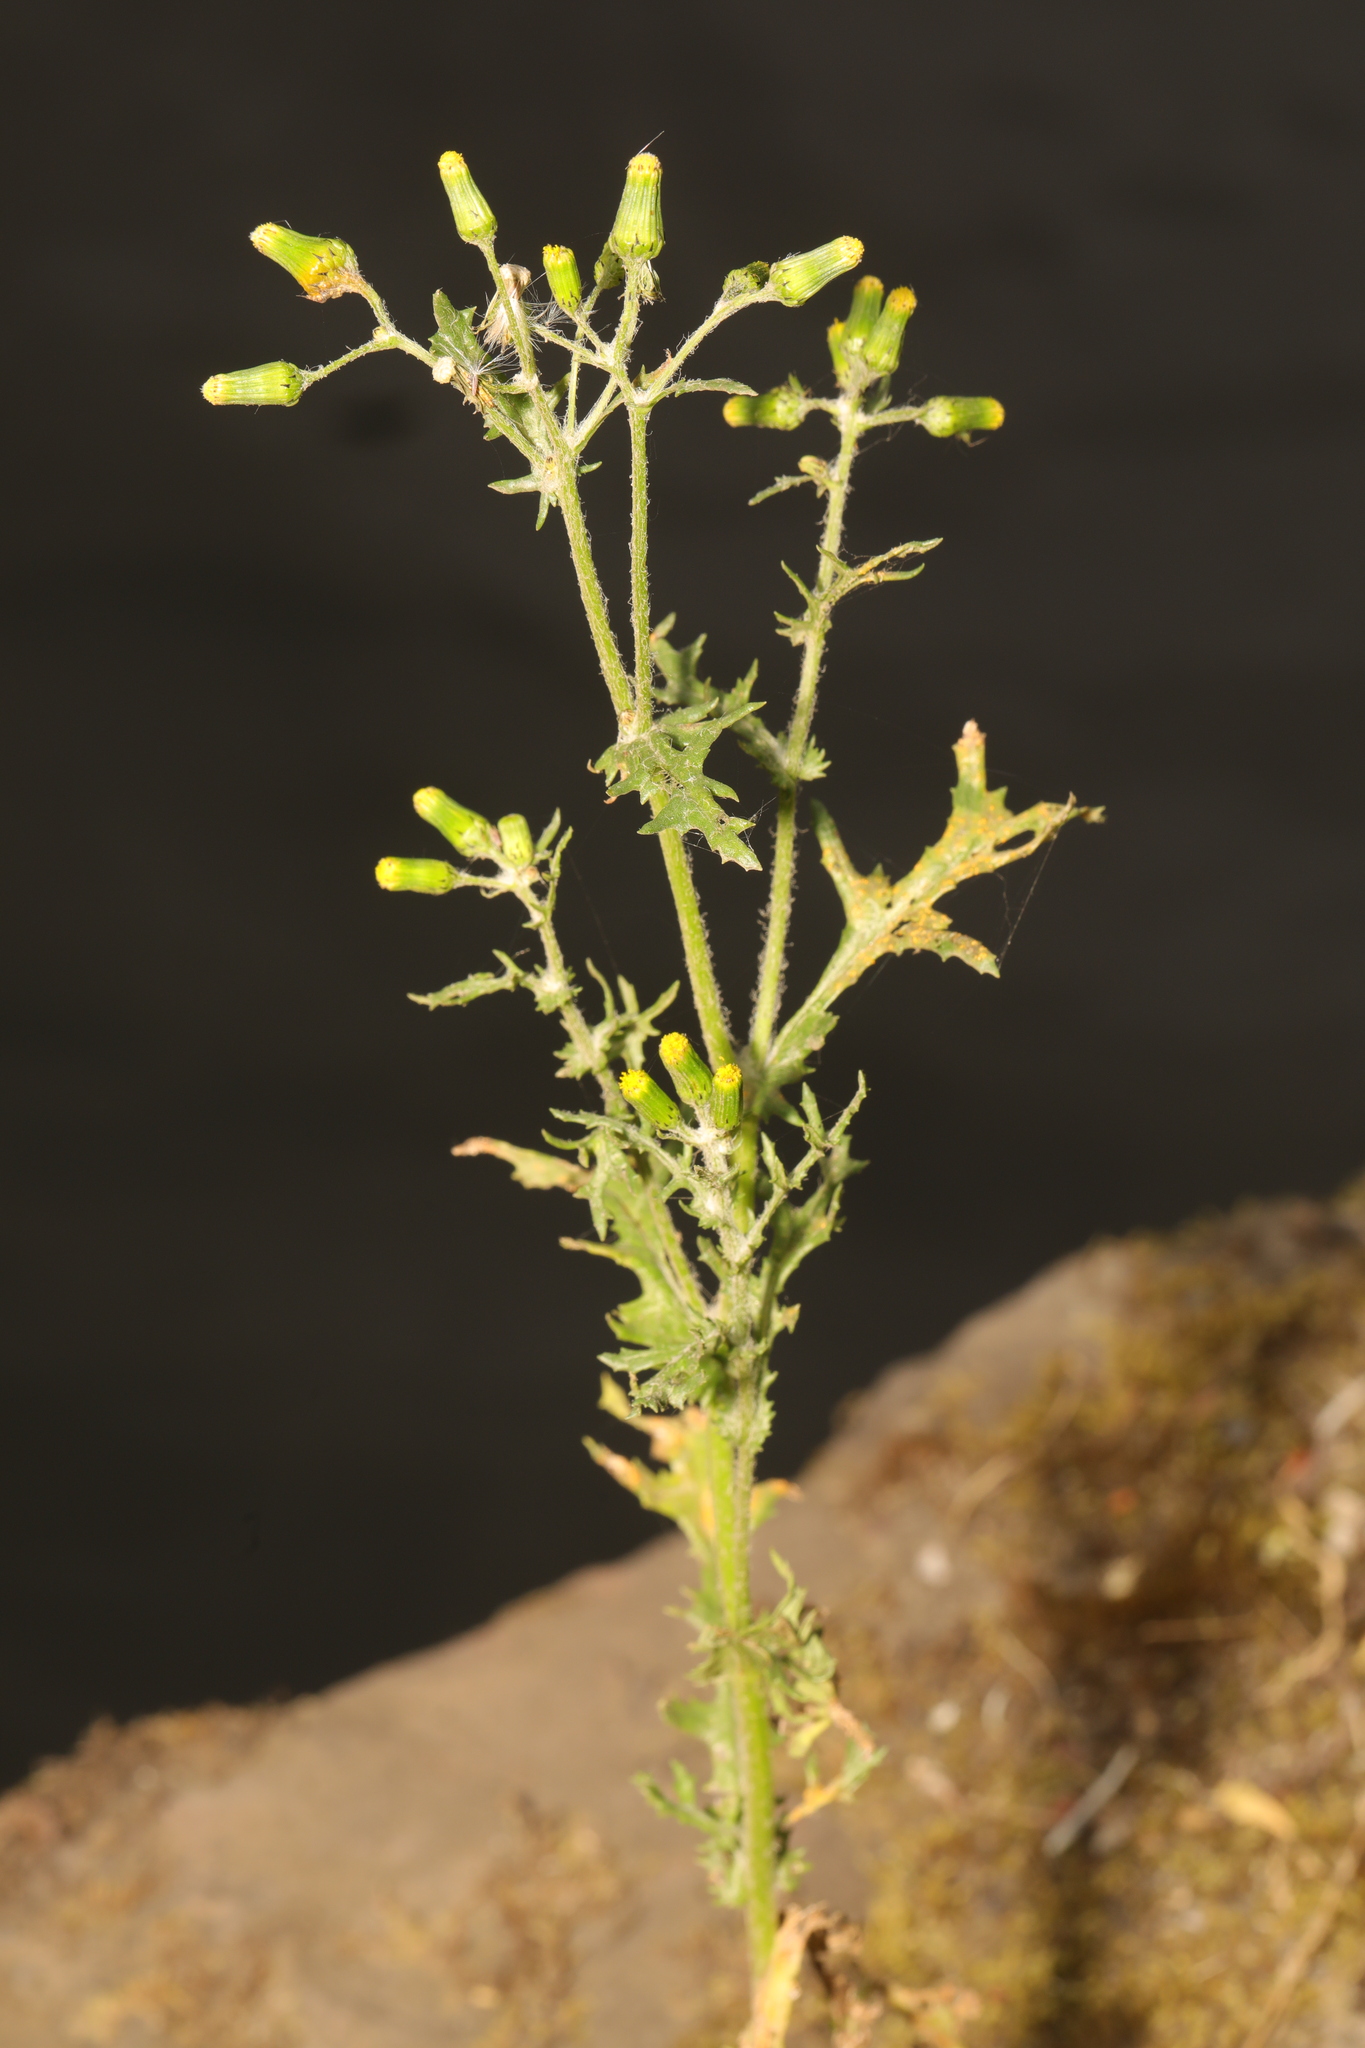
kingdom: Plantae
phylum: Tracheophyta
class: Magnoliopsida
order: Asterales
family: Asteraceae
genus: Senecio
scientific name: Senecio vulgaris
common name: Old-man-in-the-spring
